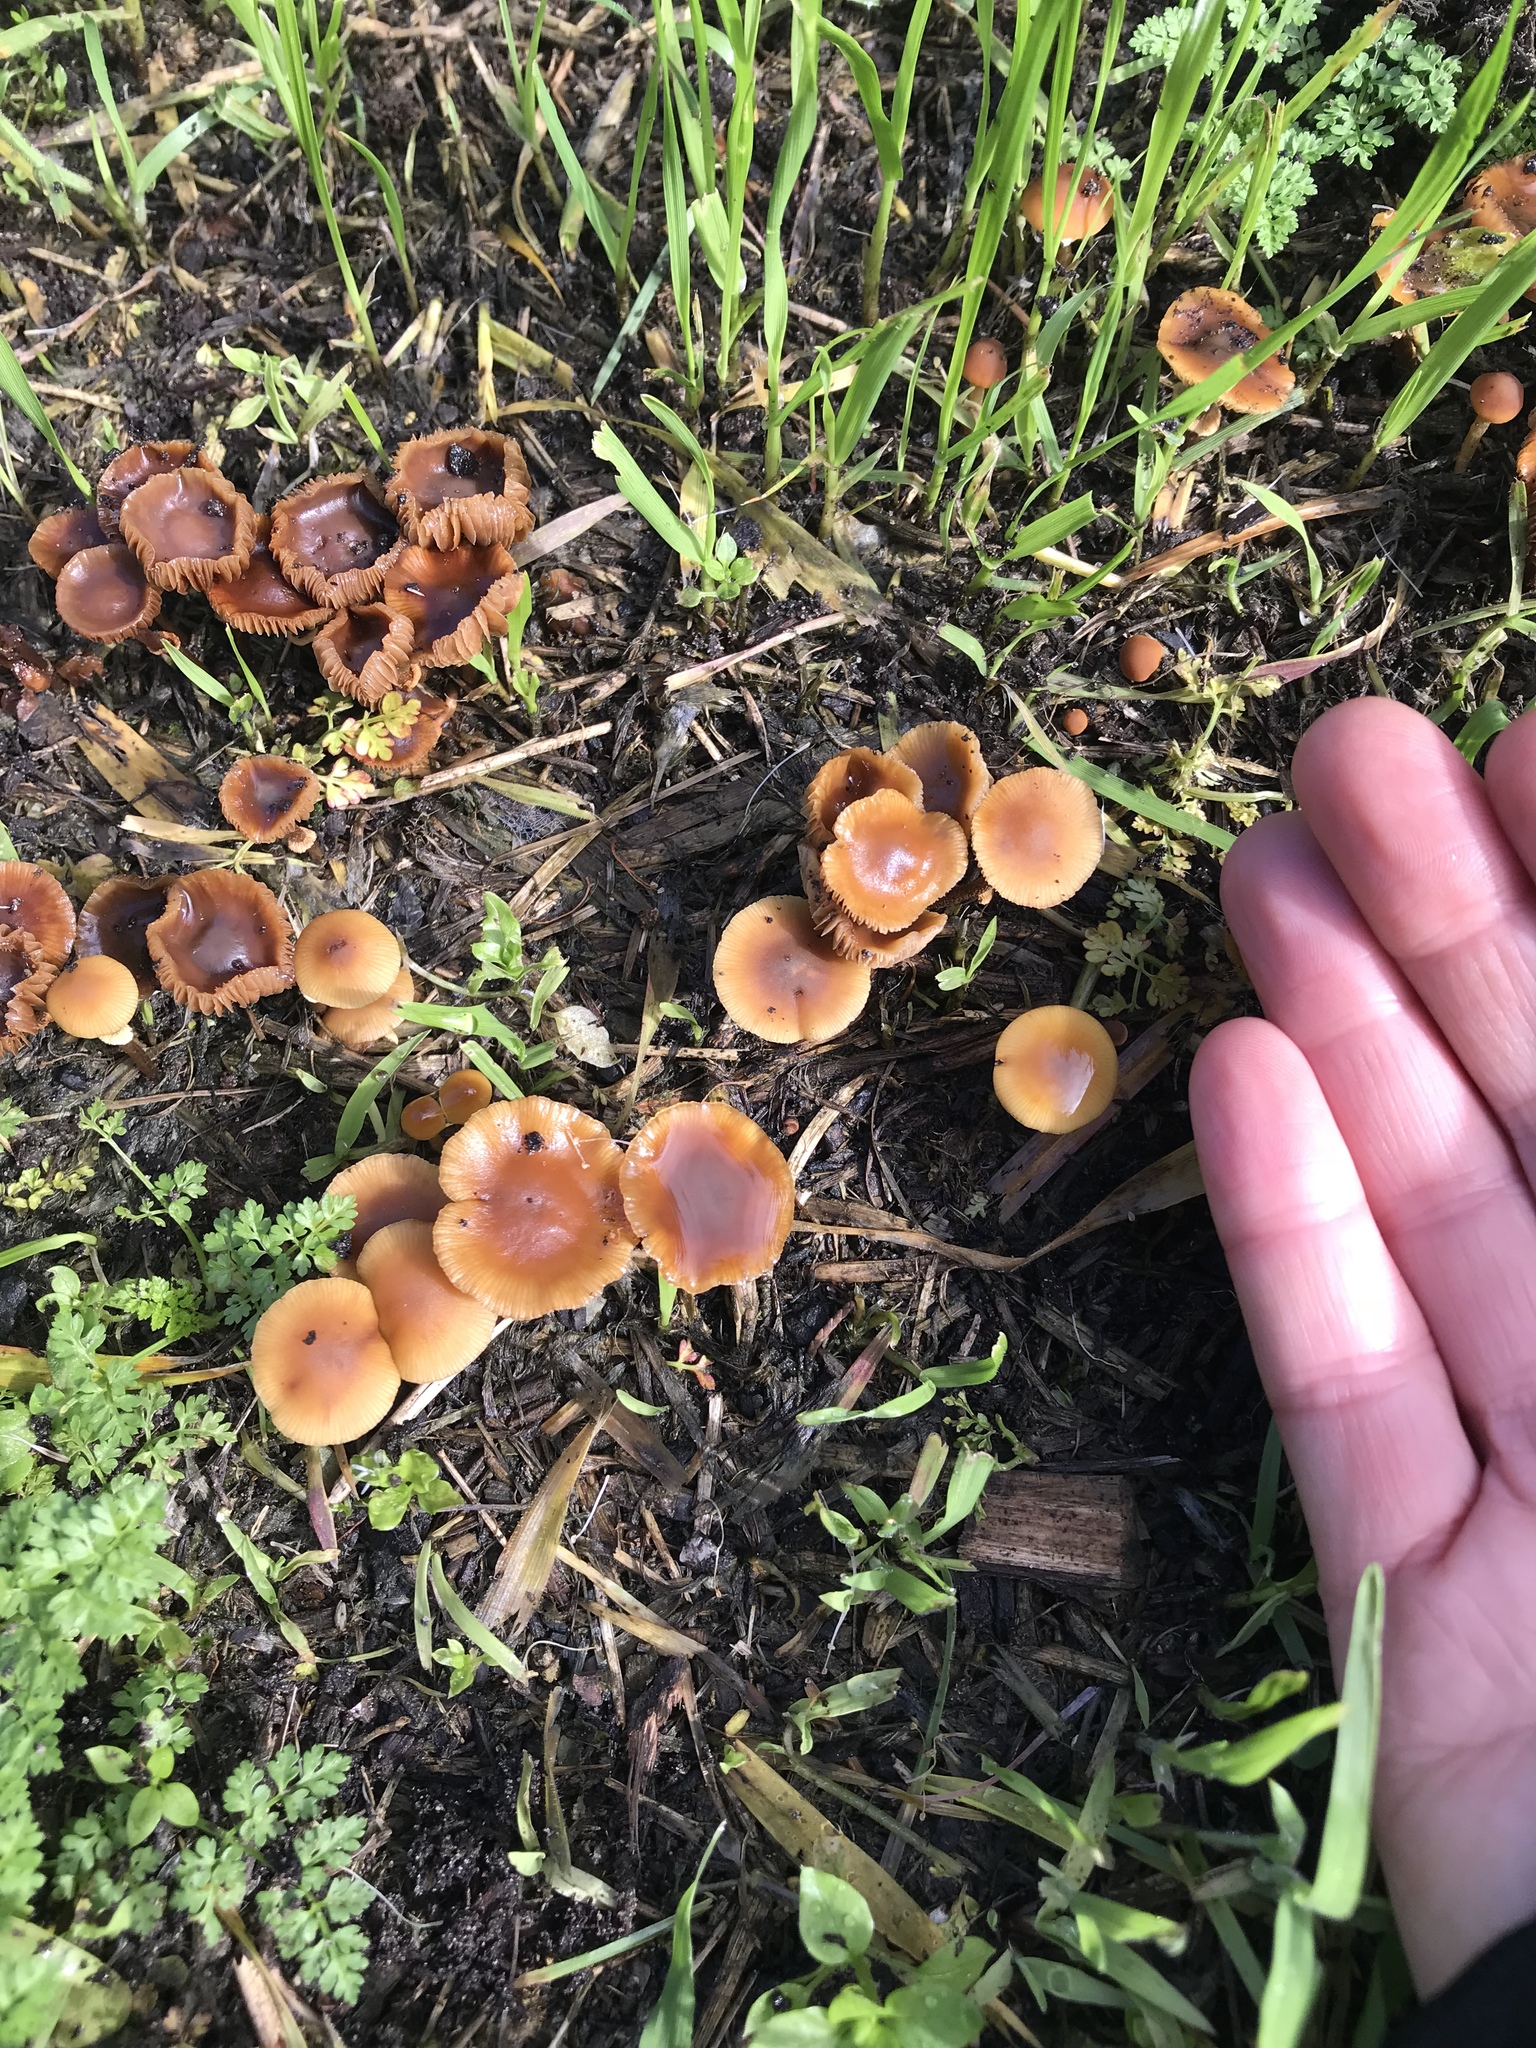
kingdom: Fungi
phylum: Basidiomycota
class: Agaricomycetes
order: Agaricales
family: Tubariaceae
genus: Tubaria
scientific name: Tubaria furfuracea
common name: Scurfy twiglet
